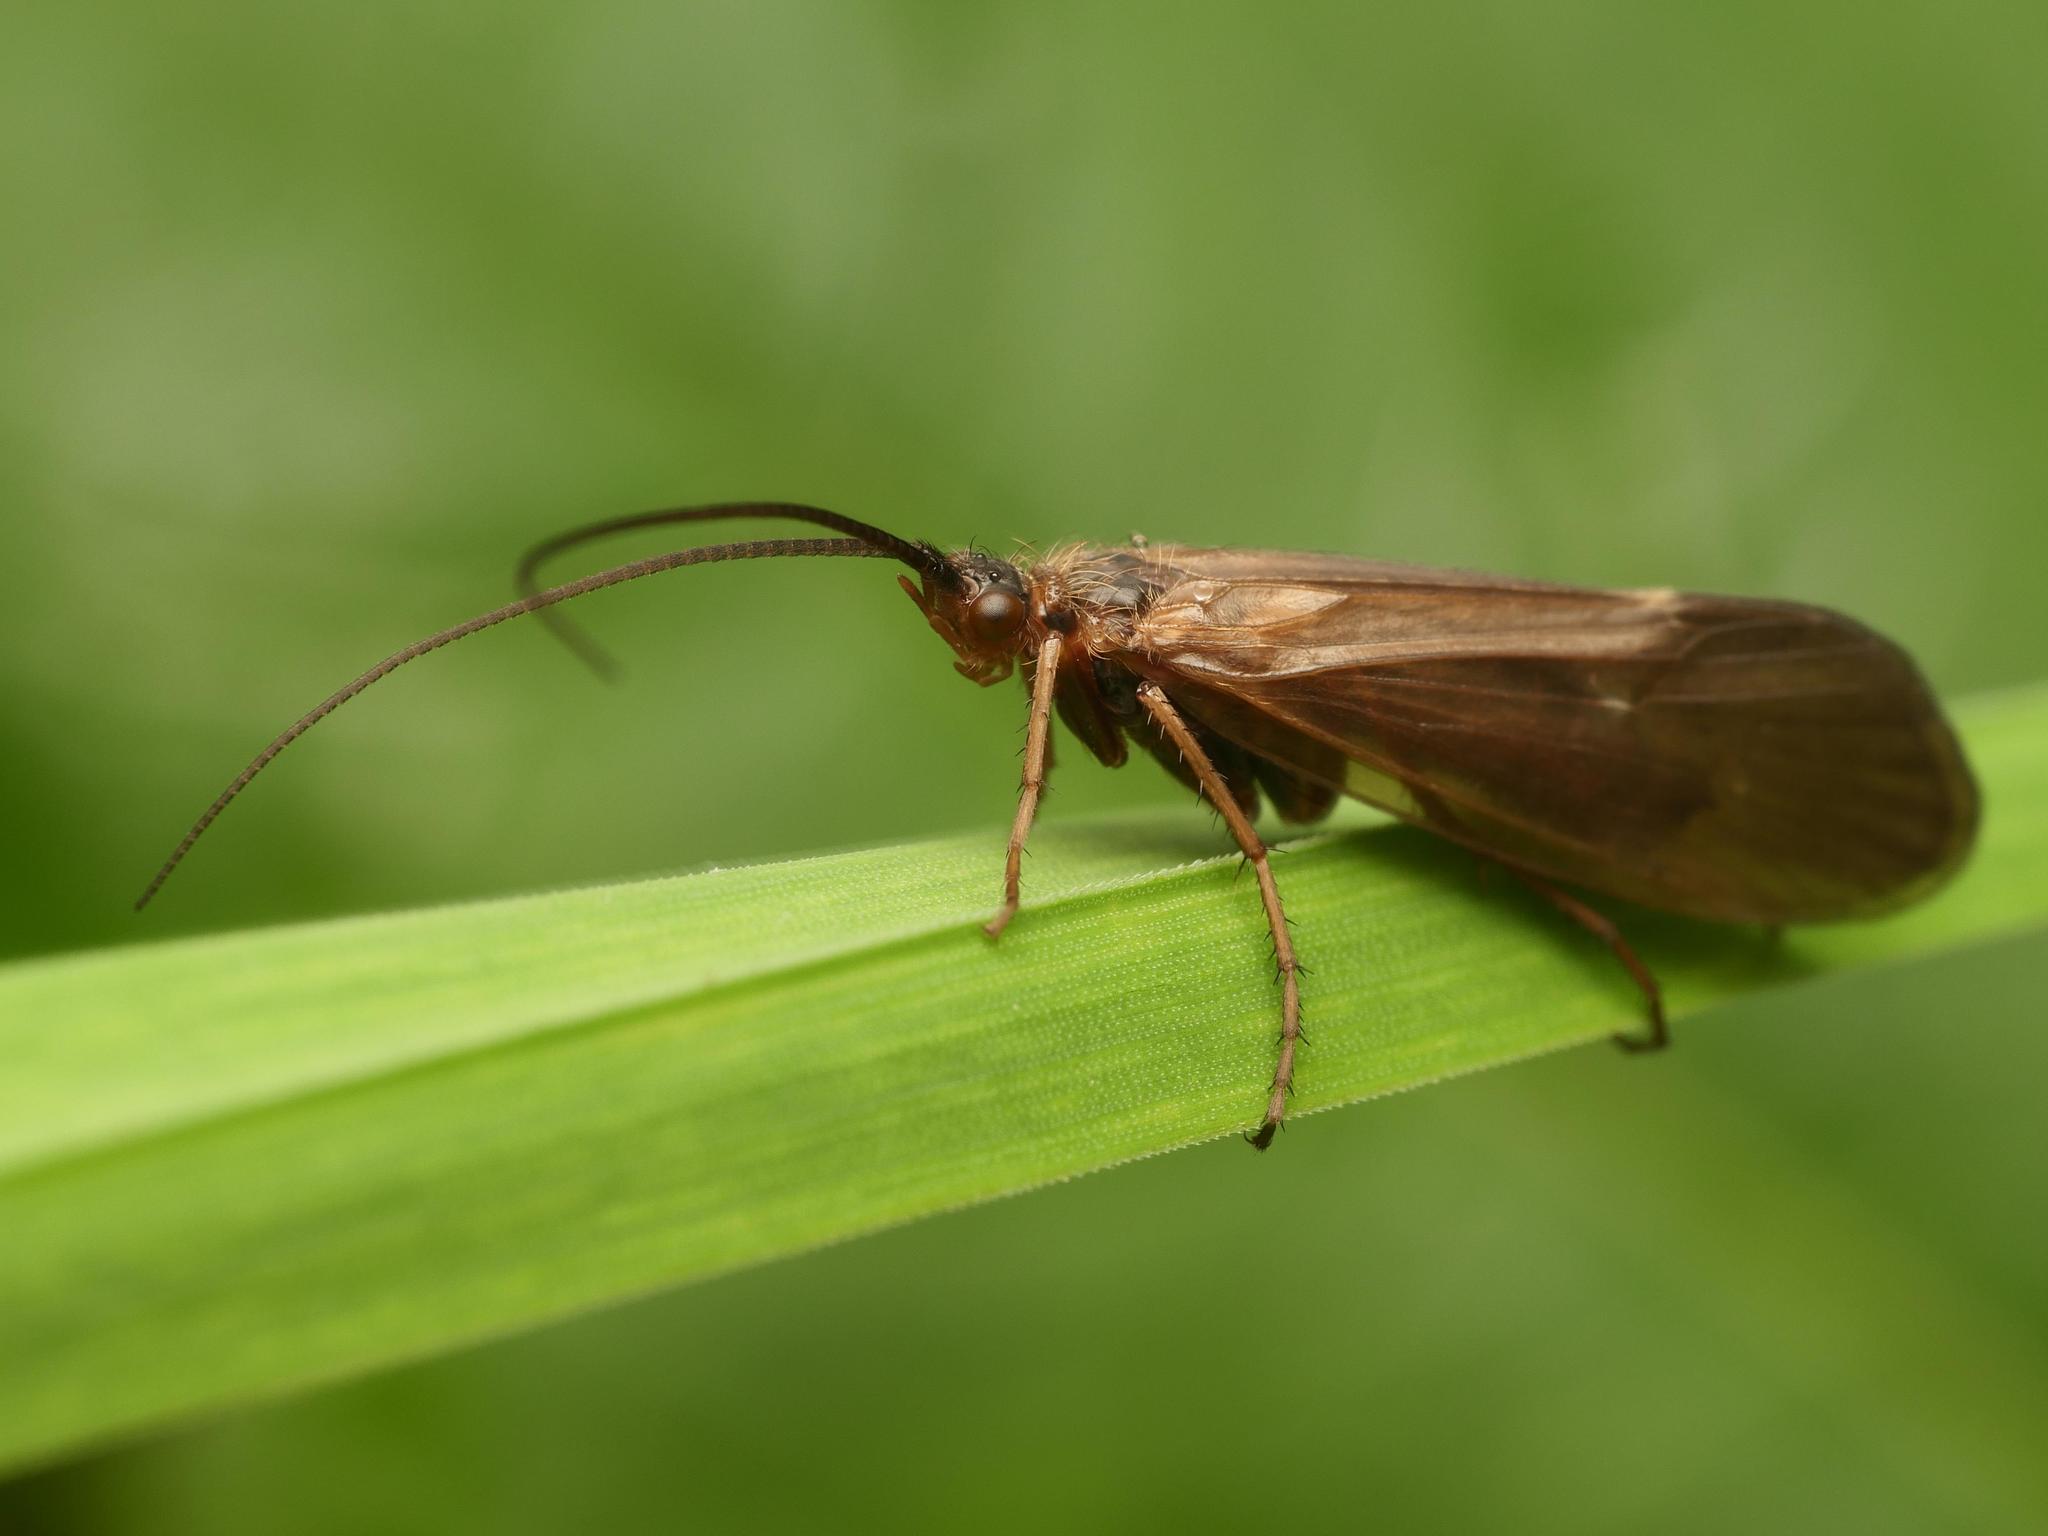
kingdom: Animalia
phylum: Arthropoda
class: Insecta
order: Trichoptera
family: Limnephilidae
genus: Anabolia
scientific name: Anabolia nervosa
